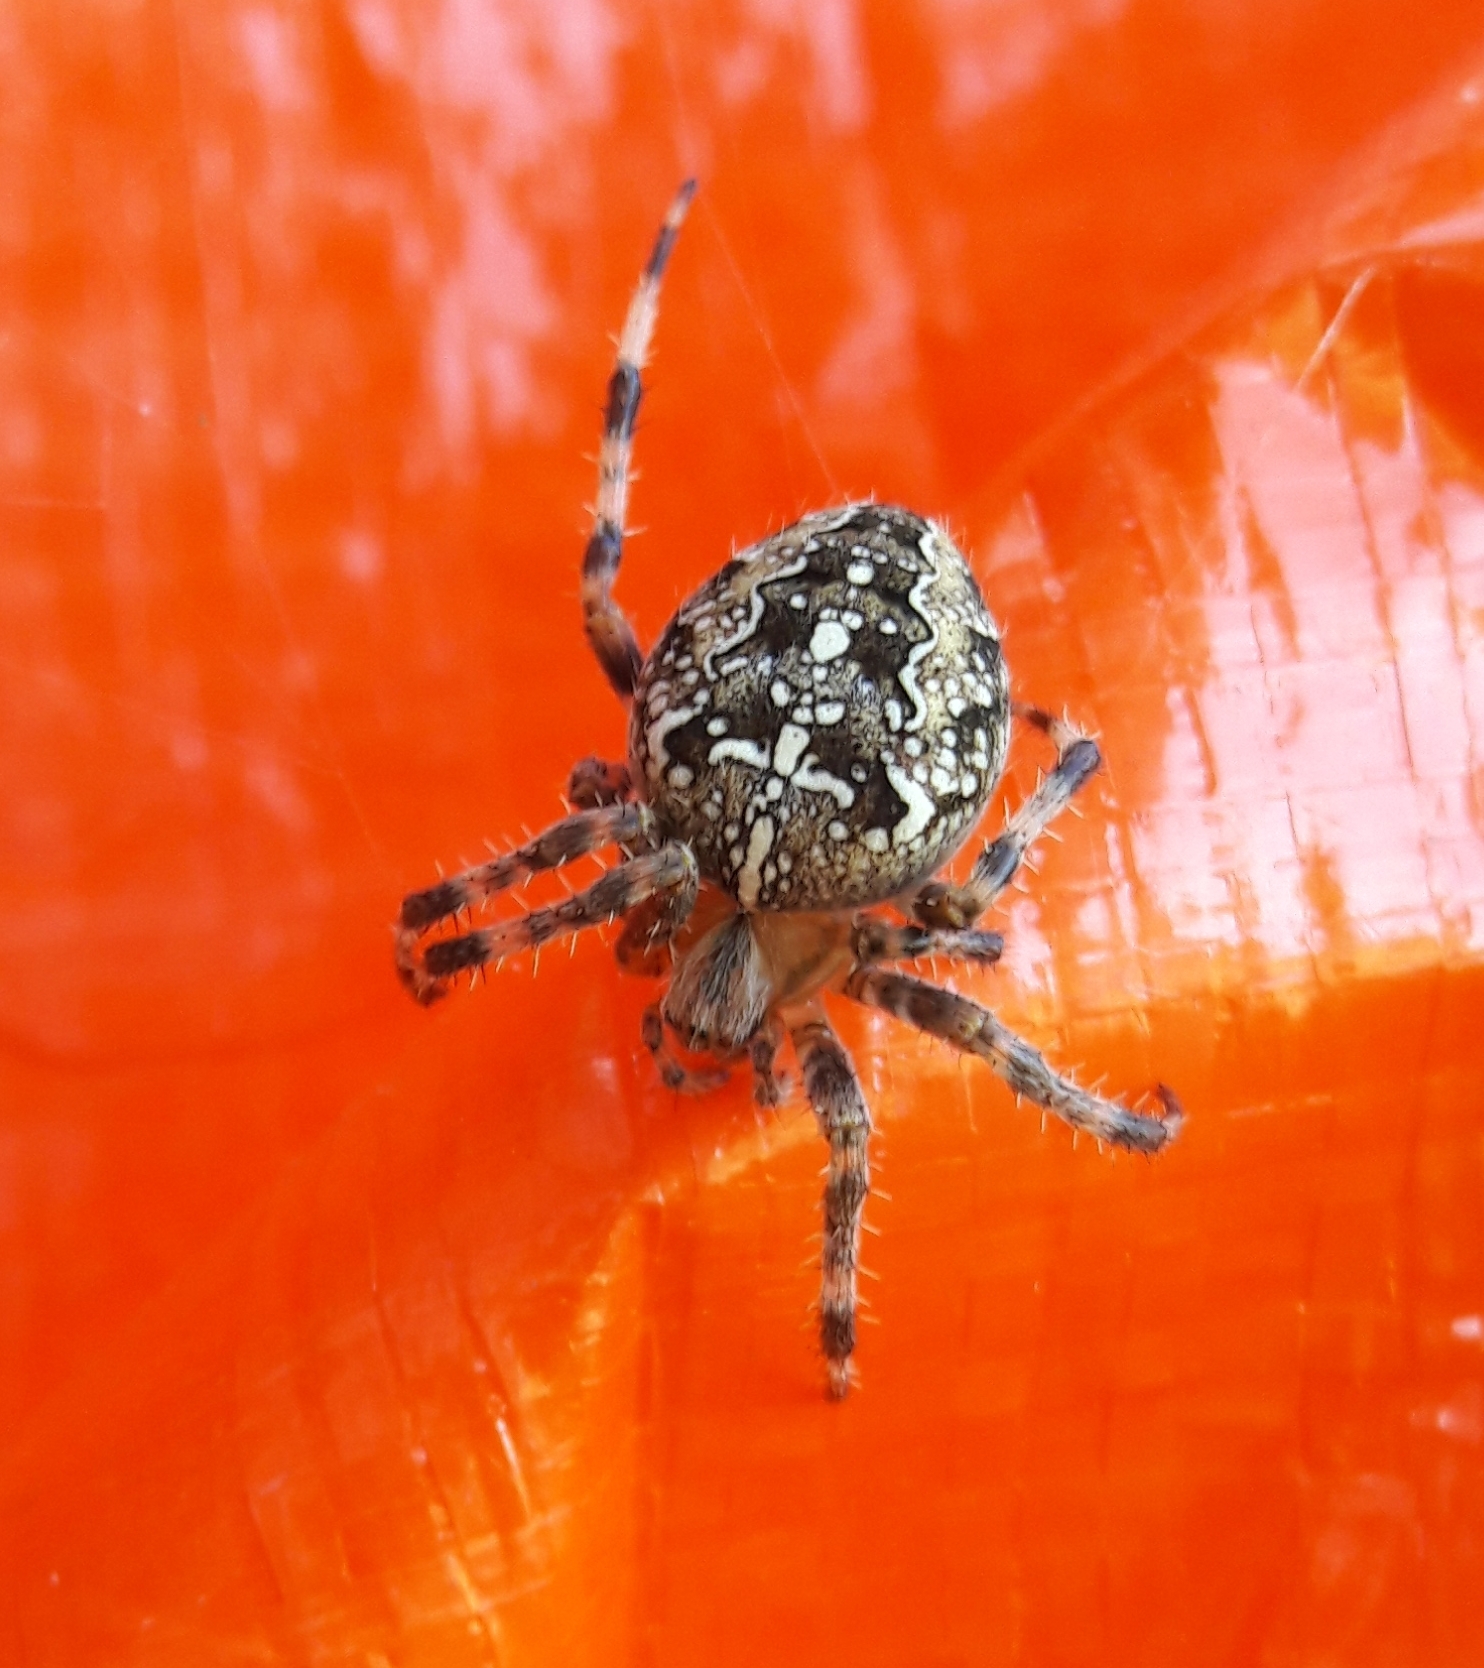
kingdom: Animalia
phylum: Arthropoda
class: Arachnida
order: Araneae
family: Araneidae
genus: Araneus
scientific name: Araneus diadematus
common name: Cross orbweaver
